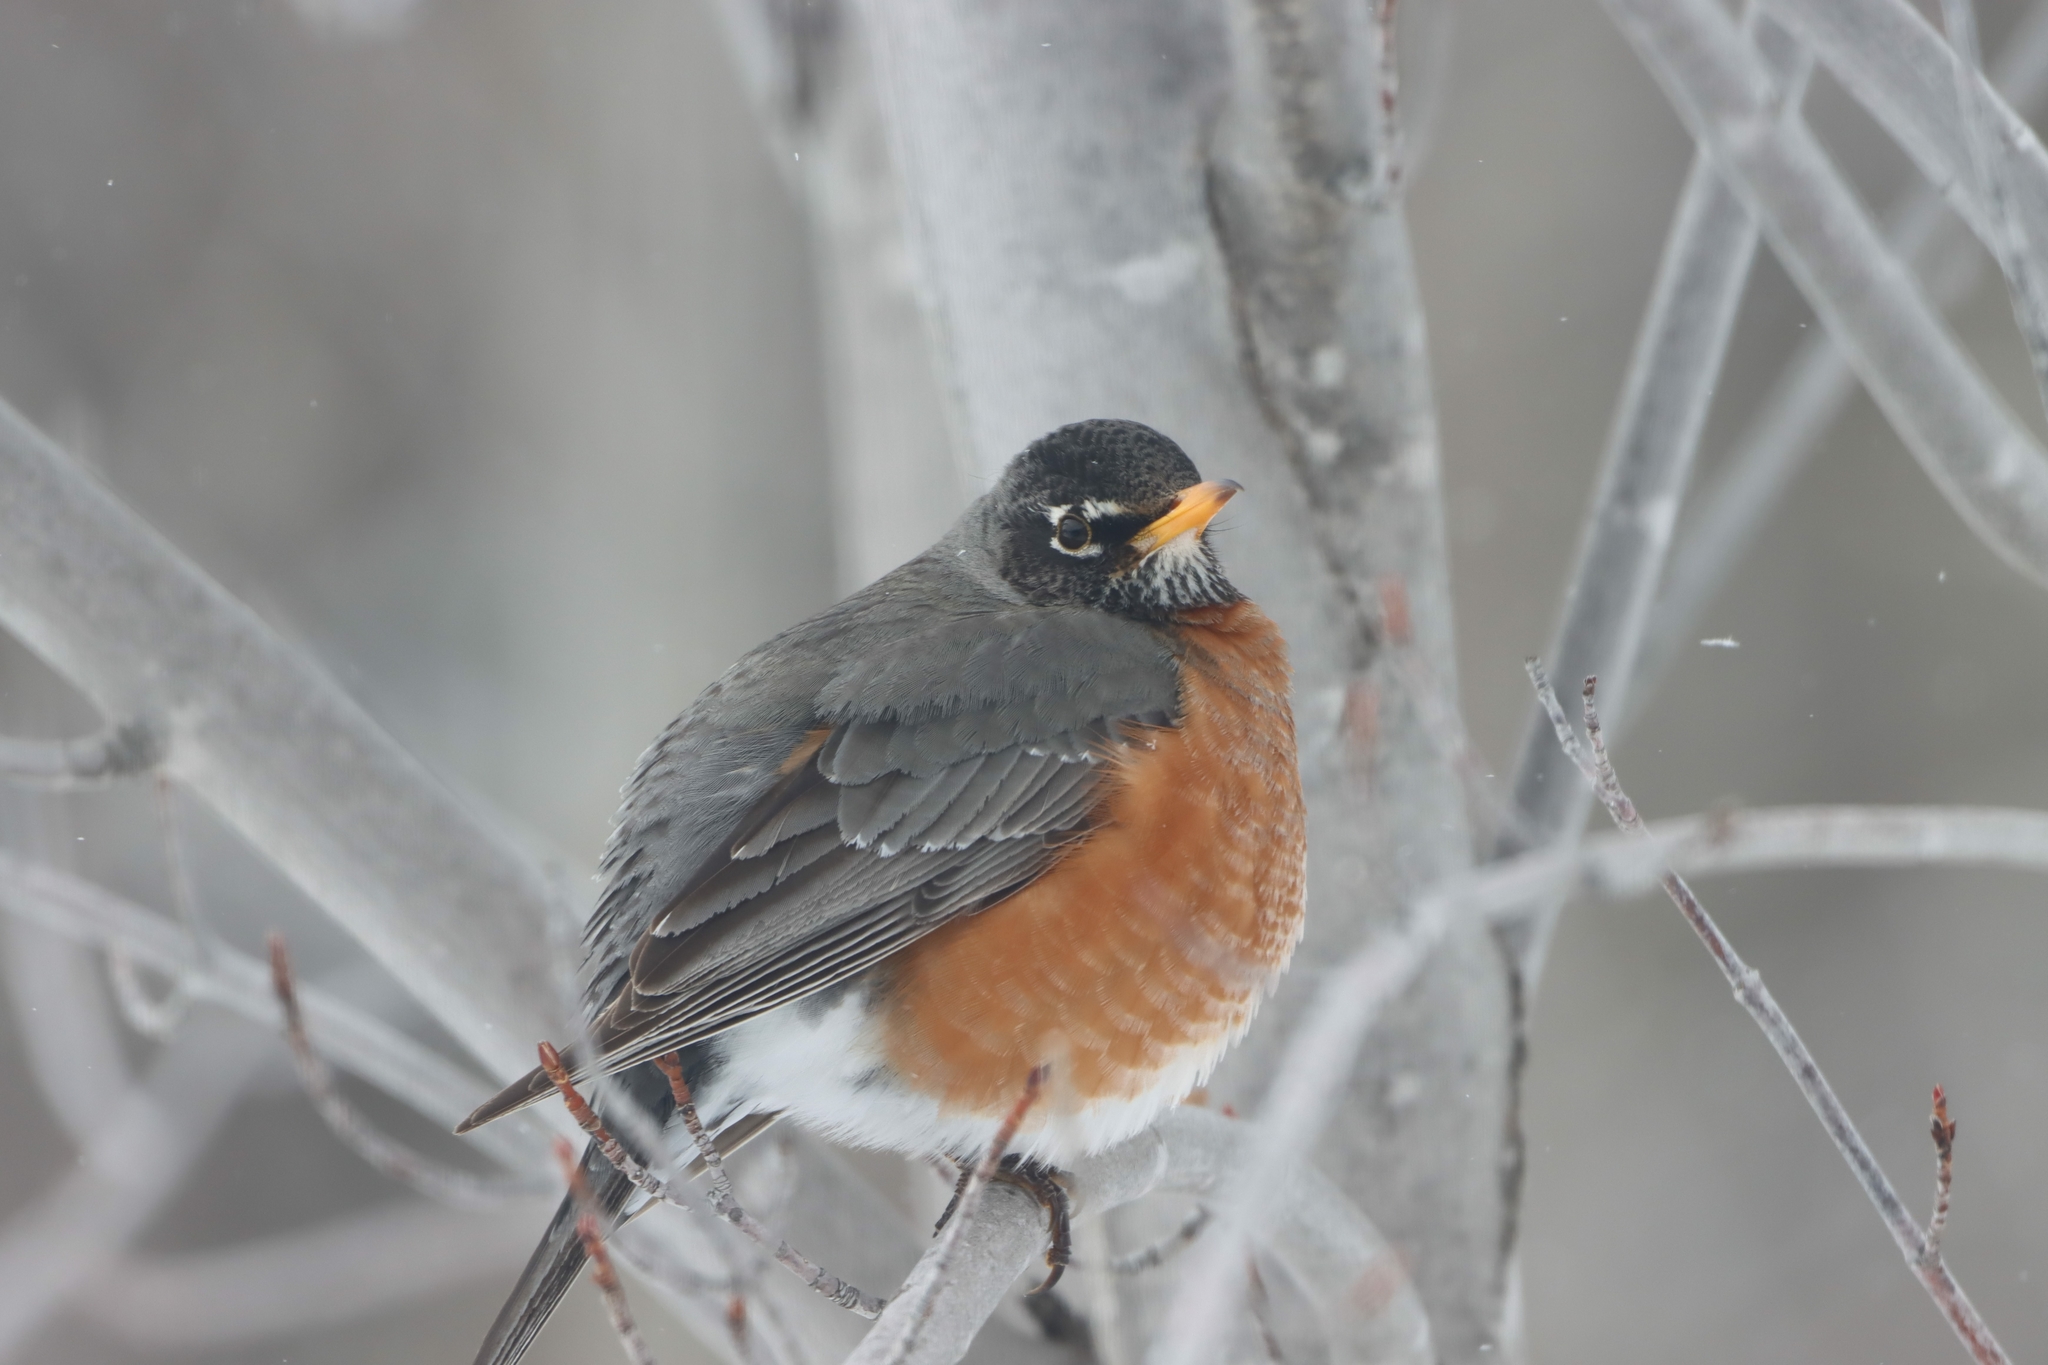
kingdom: Animalia
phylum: Chordata
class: Aves
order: Passeriformes
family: Turdidae
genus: Turdus
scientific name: Turdus migratorius
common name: American robin
